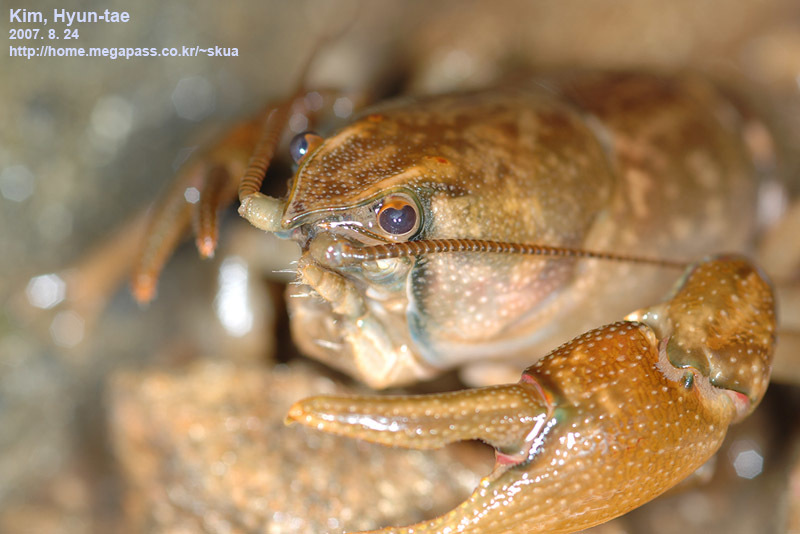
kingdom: Animalia
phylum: Arthropoda
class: Malacostraca
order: Decapoda
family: Cambaroididae
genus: Cambaroides
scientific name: Cambaroides similis
